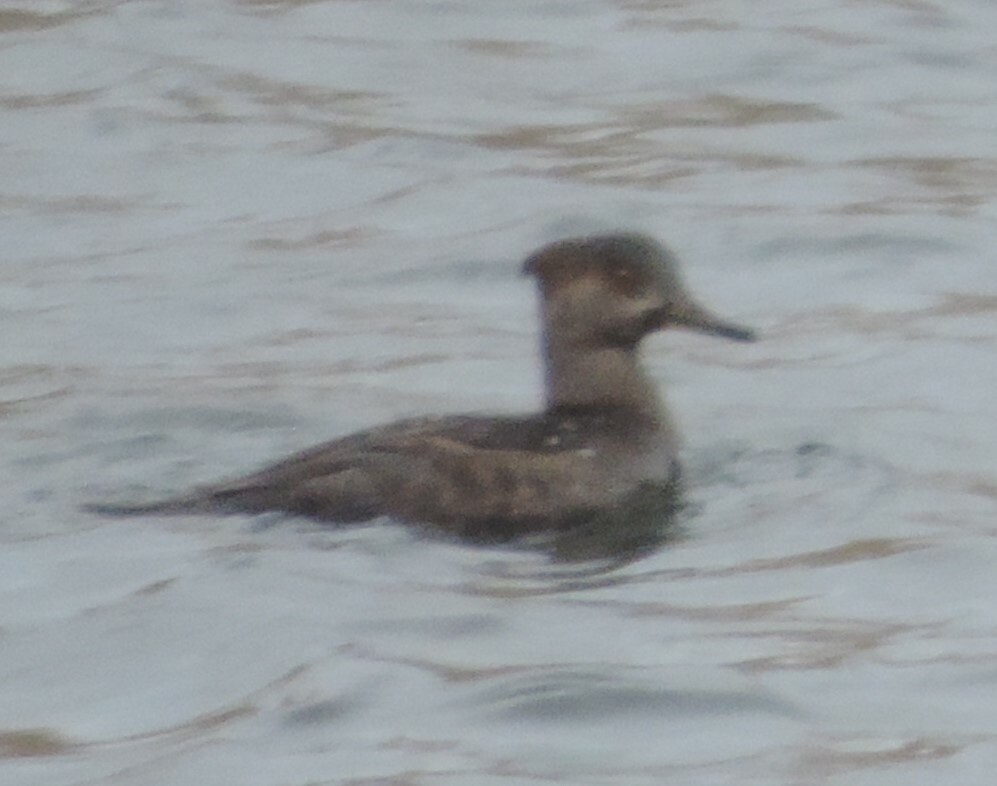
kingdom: Animalia
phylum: Chordata
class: Aves
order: Anseriformes
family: Anatidae
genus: Lophodytes
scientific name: Lophodytes cucullatus
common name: Hooded merganser
